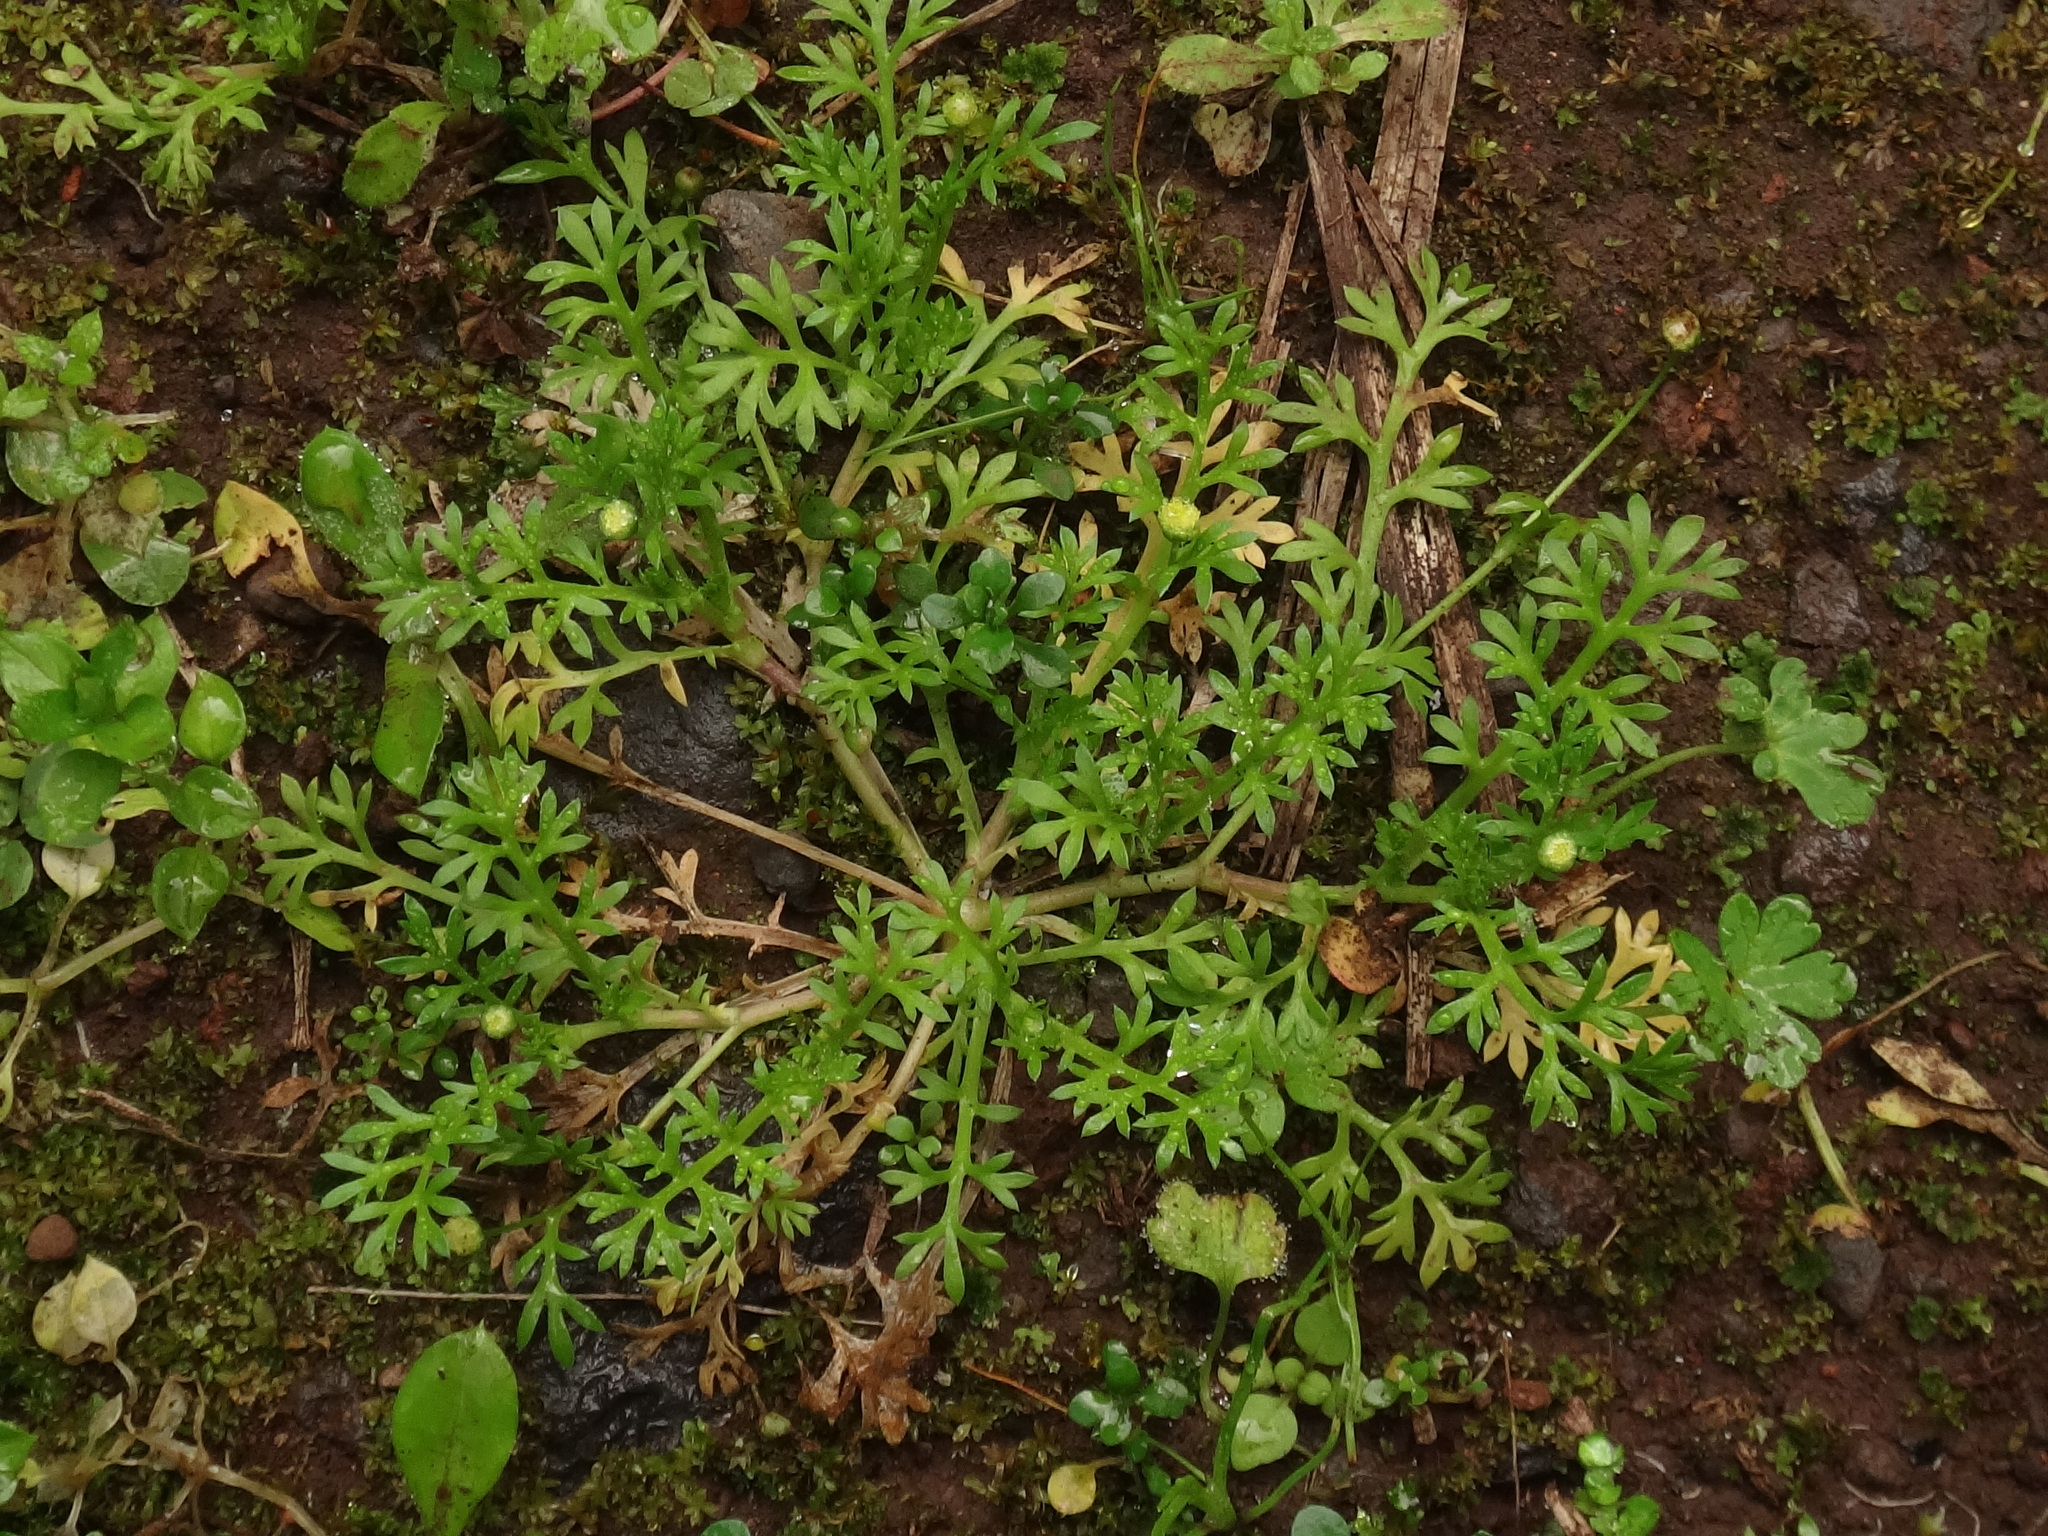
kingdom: Plantae
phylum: Tracheophyta
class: Magnoliopsida
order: Asterales
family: Asteraceae
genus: Cotula
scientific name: Cotula australis
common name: Australian waterbuttons
